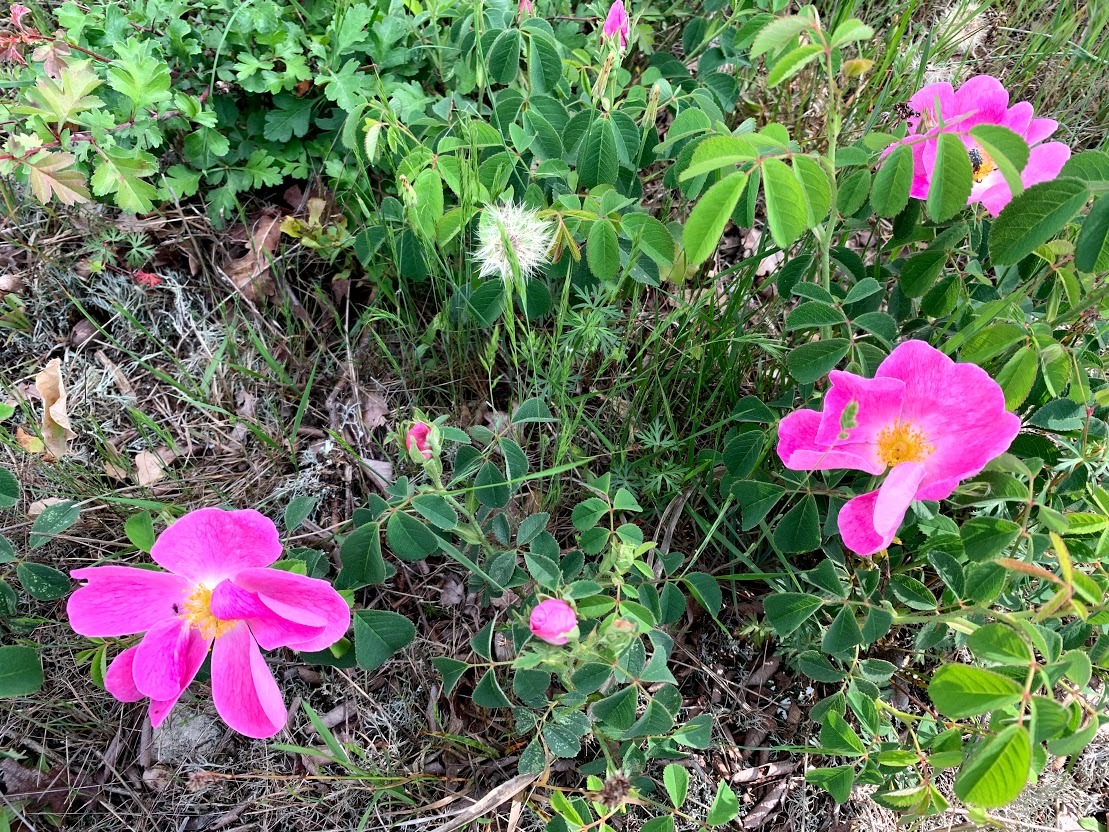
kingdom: Plantae
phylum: Tracheophyta
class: Magnoliopsida
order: Rosales
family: Rosaceae
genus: Rosa
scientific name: Rosa gallica
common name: French rose
